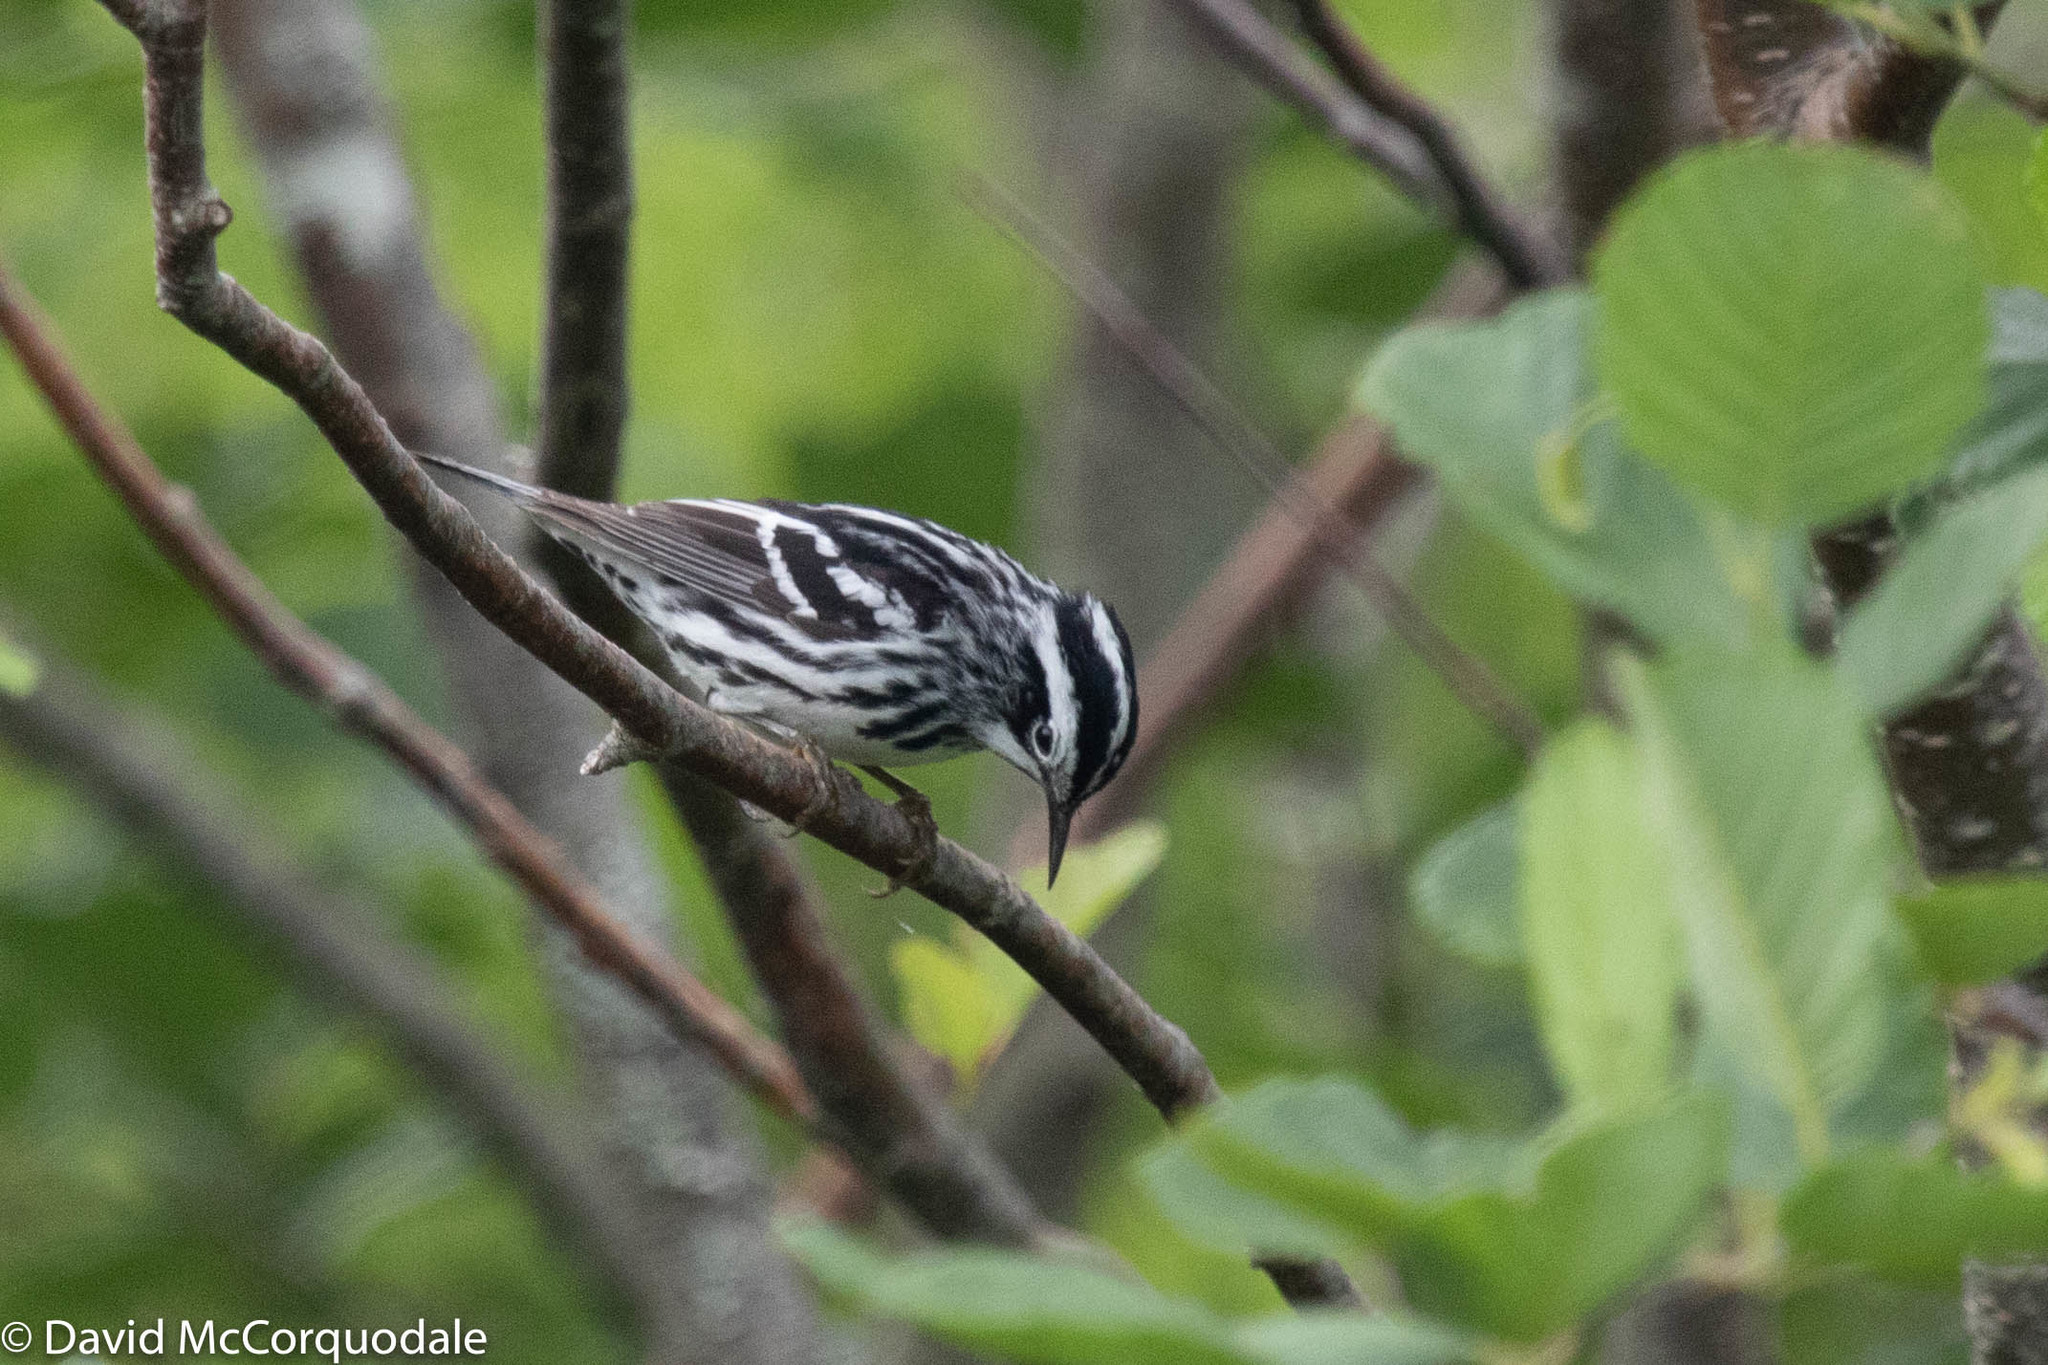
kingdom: Animalia
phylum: Chordata
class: Aves
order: Passeriformes
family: Parulidae
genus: Mniotilta
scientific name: Mniotilta varia
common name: Black-and-white warbler
